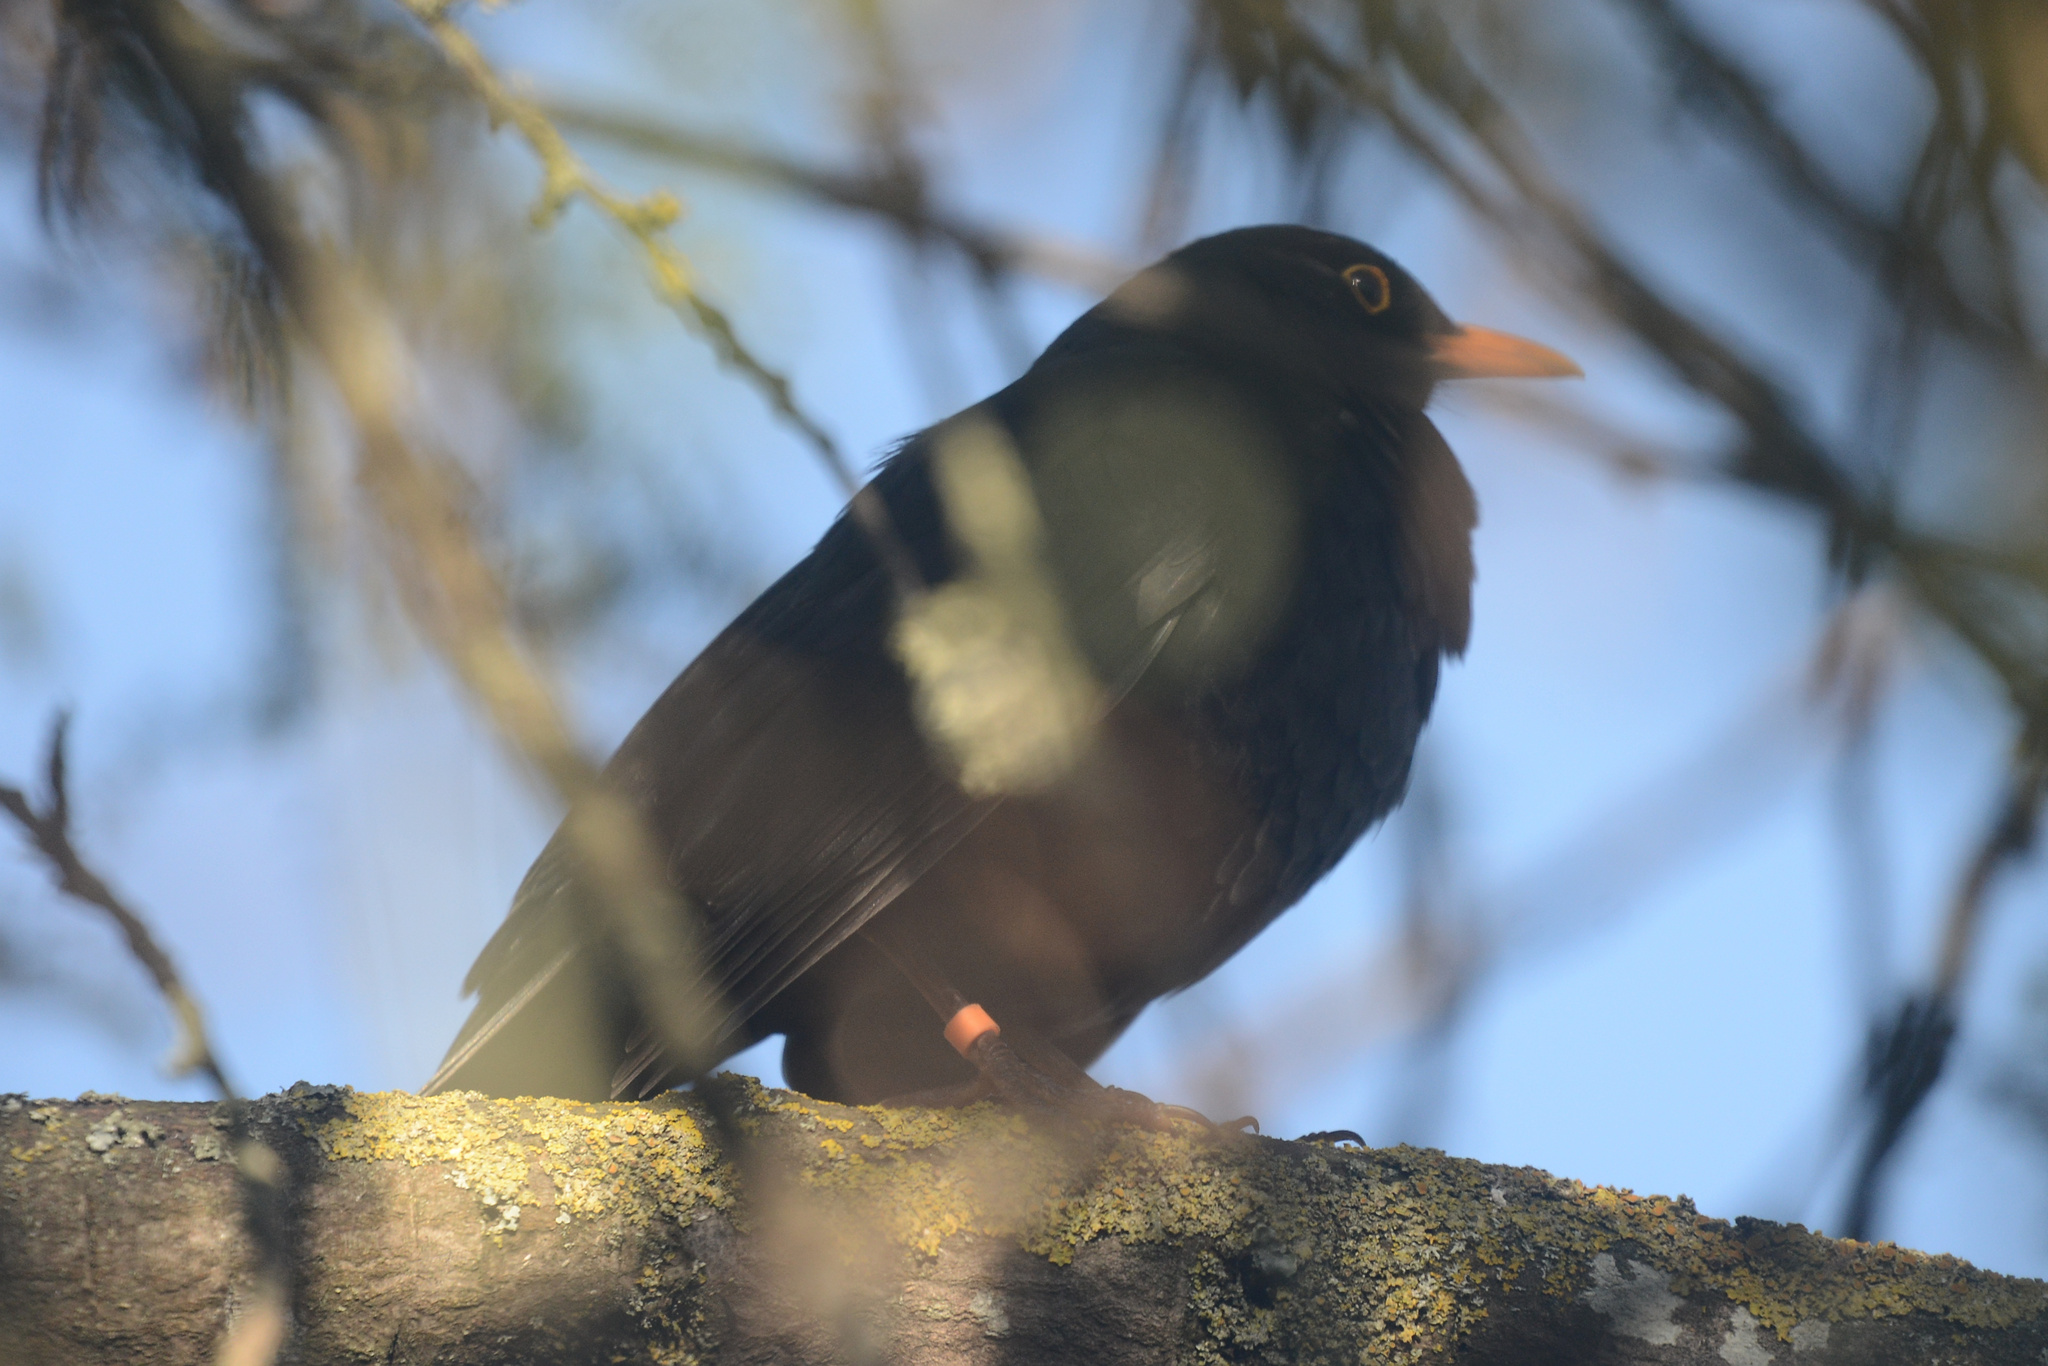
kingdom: Animalia
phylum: Chordata
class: Aves
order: Passeriformes
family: Turdidae
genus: Turdus
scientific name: Turdus merula
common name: Common blackbird
